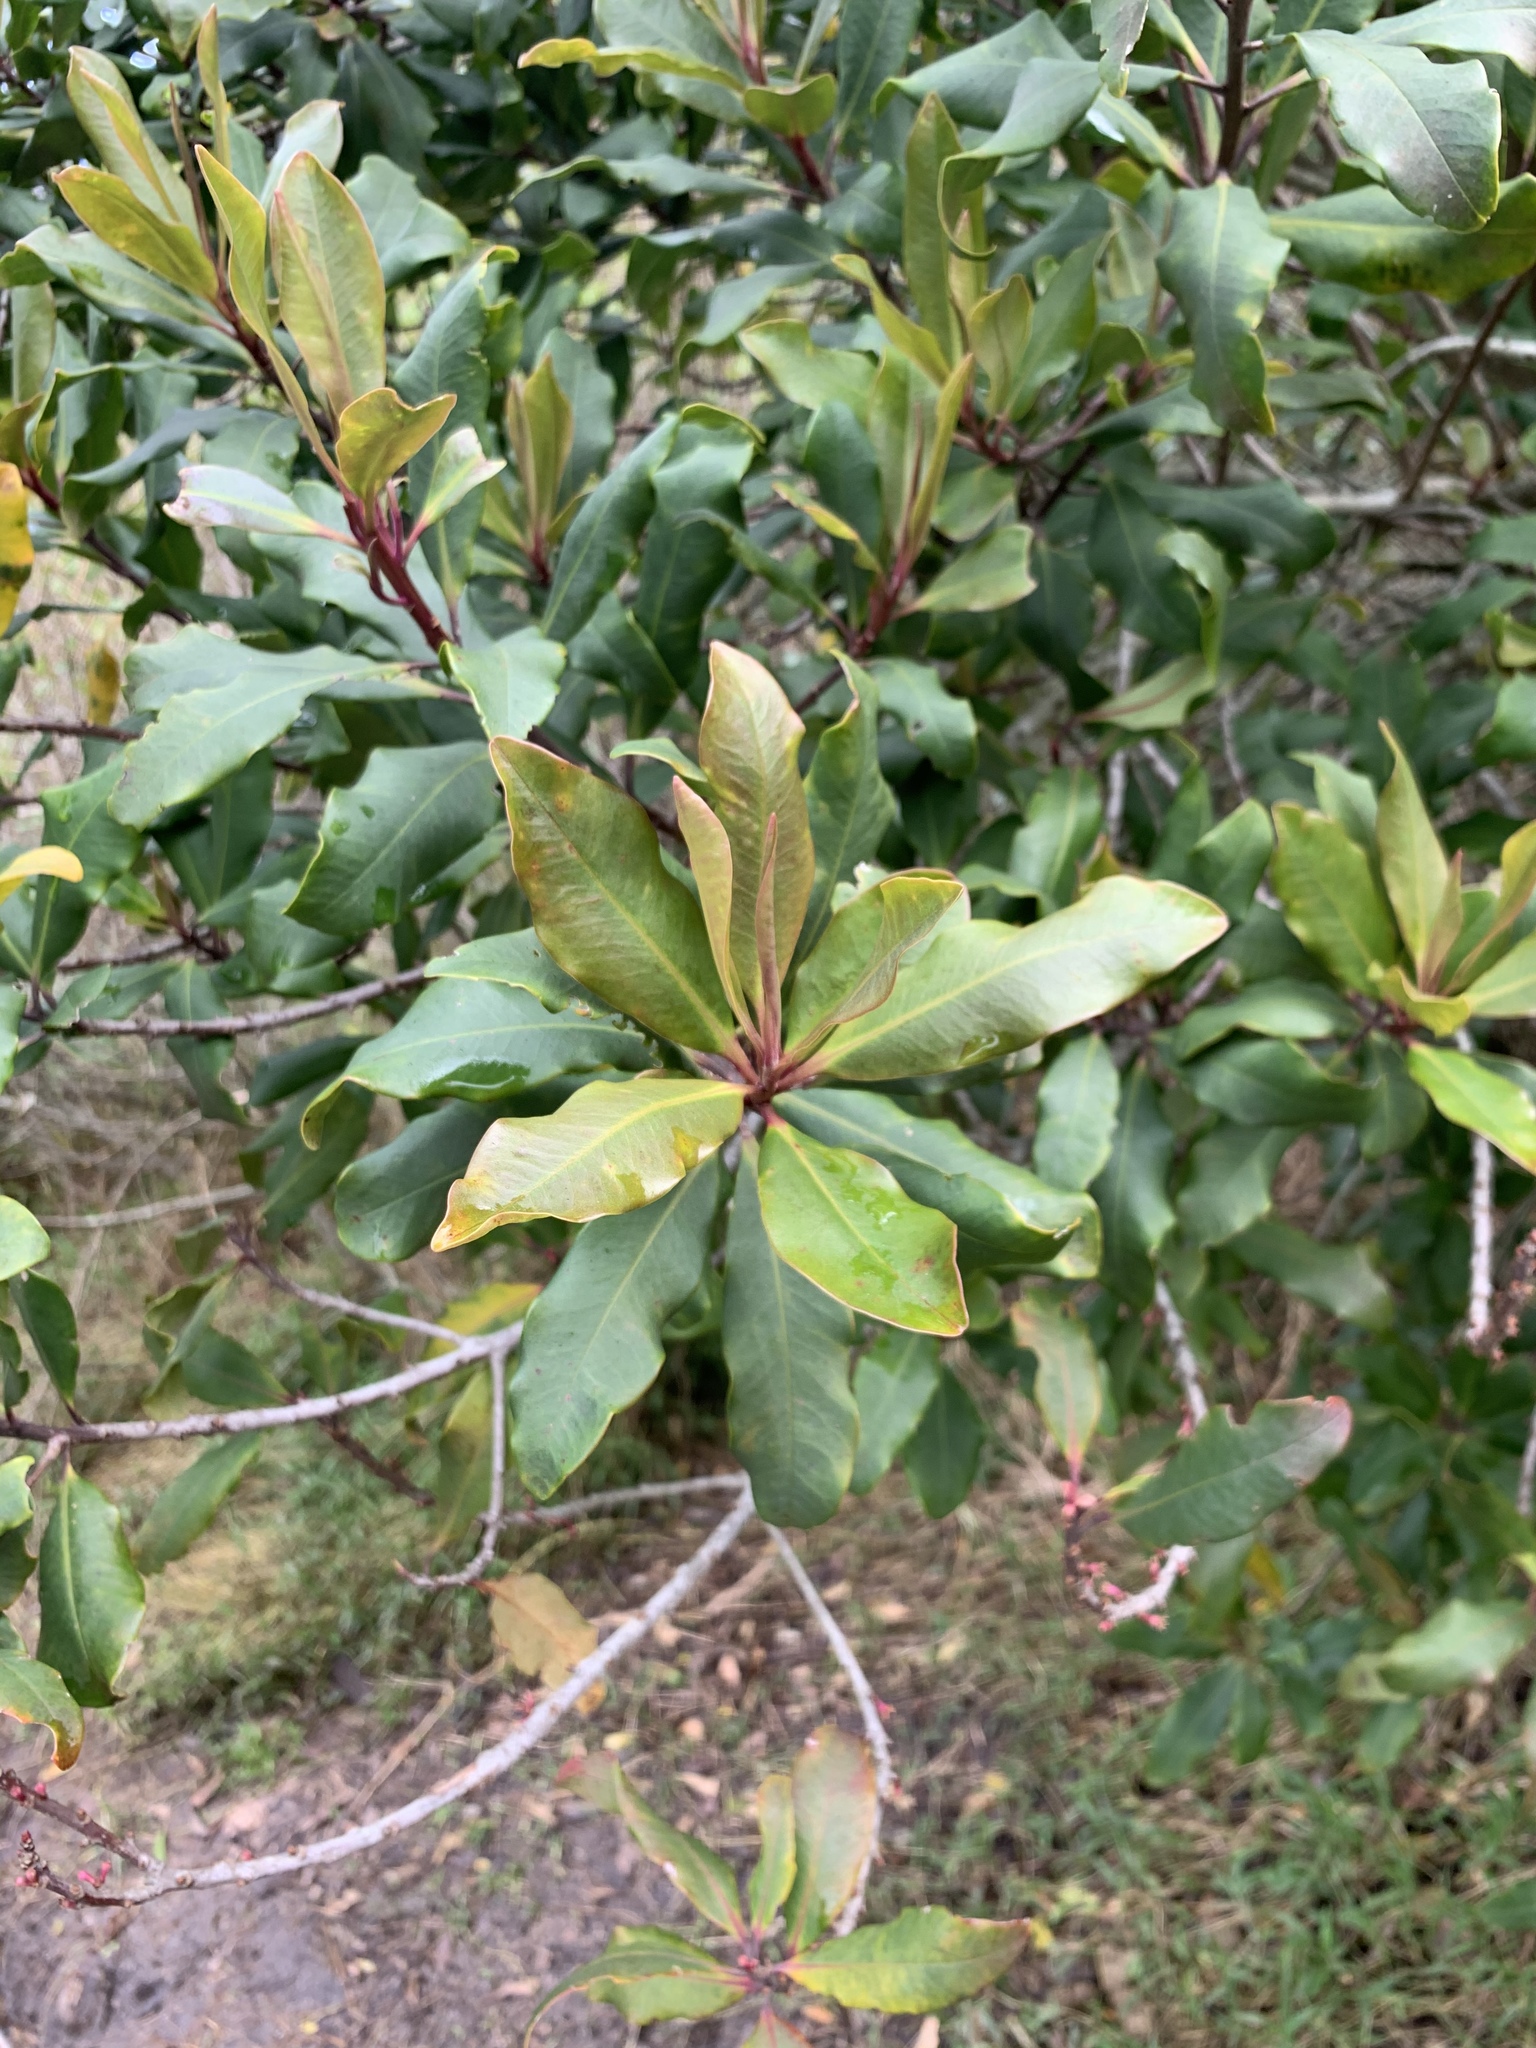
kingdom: Plantae
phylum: Tracheophyta
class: Magnoliopsida
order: Ericales
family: Primulaceae
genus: Myrsine
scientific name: Myrsine melanophloeos
